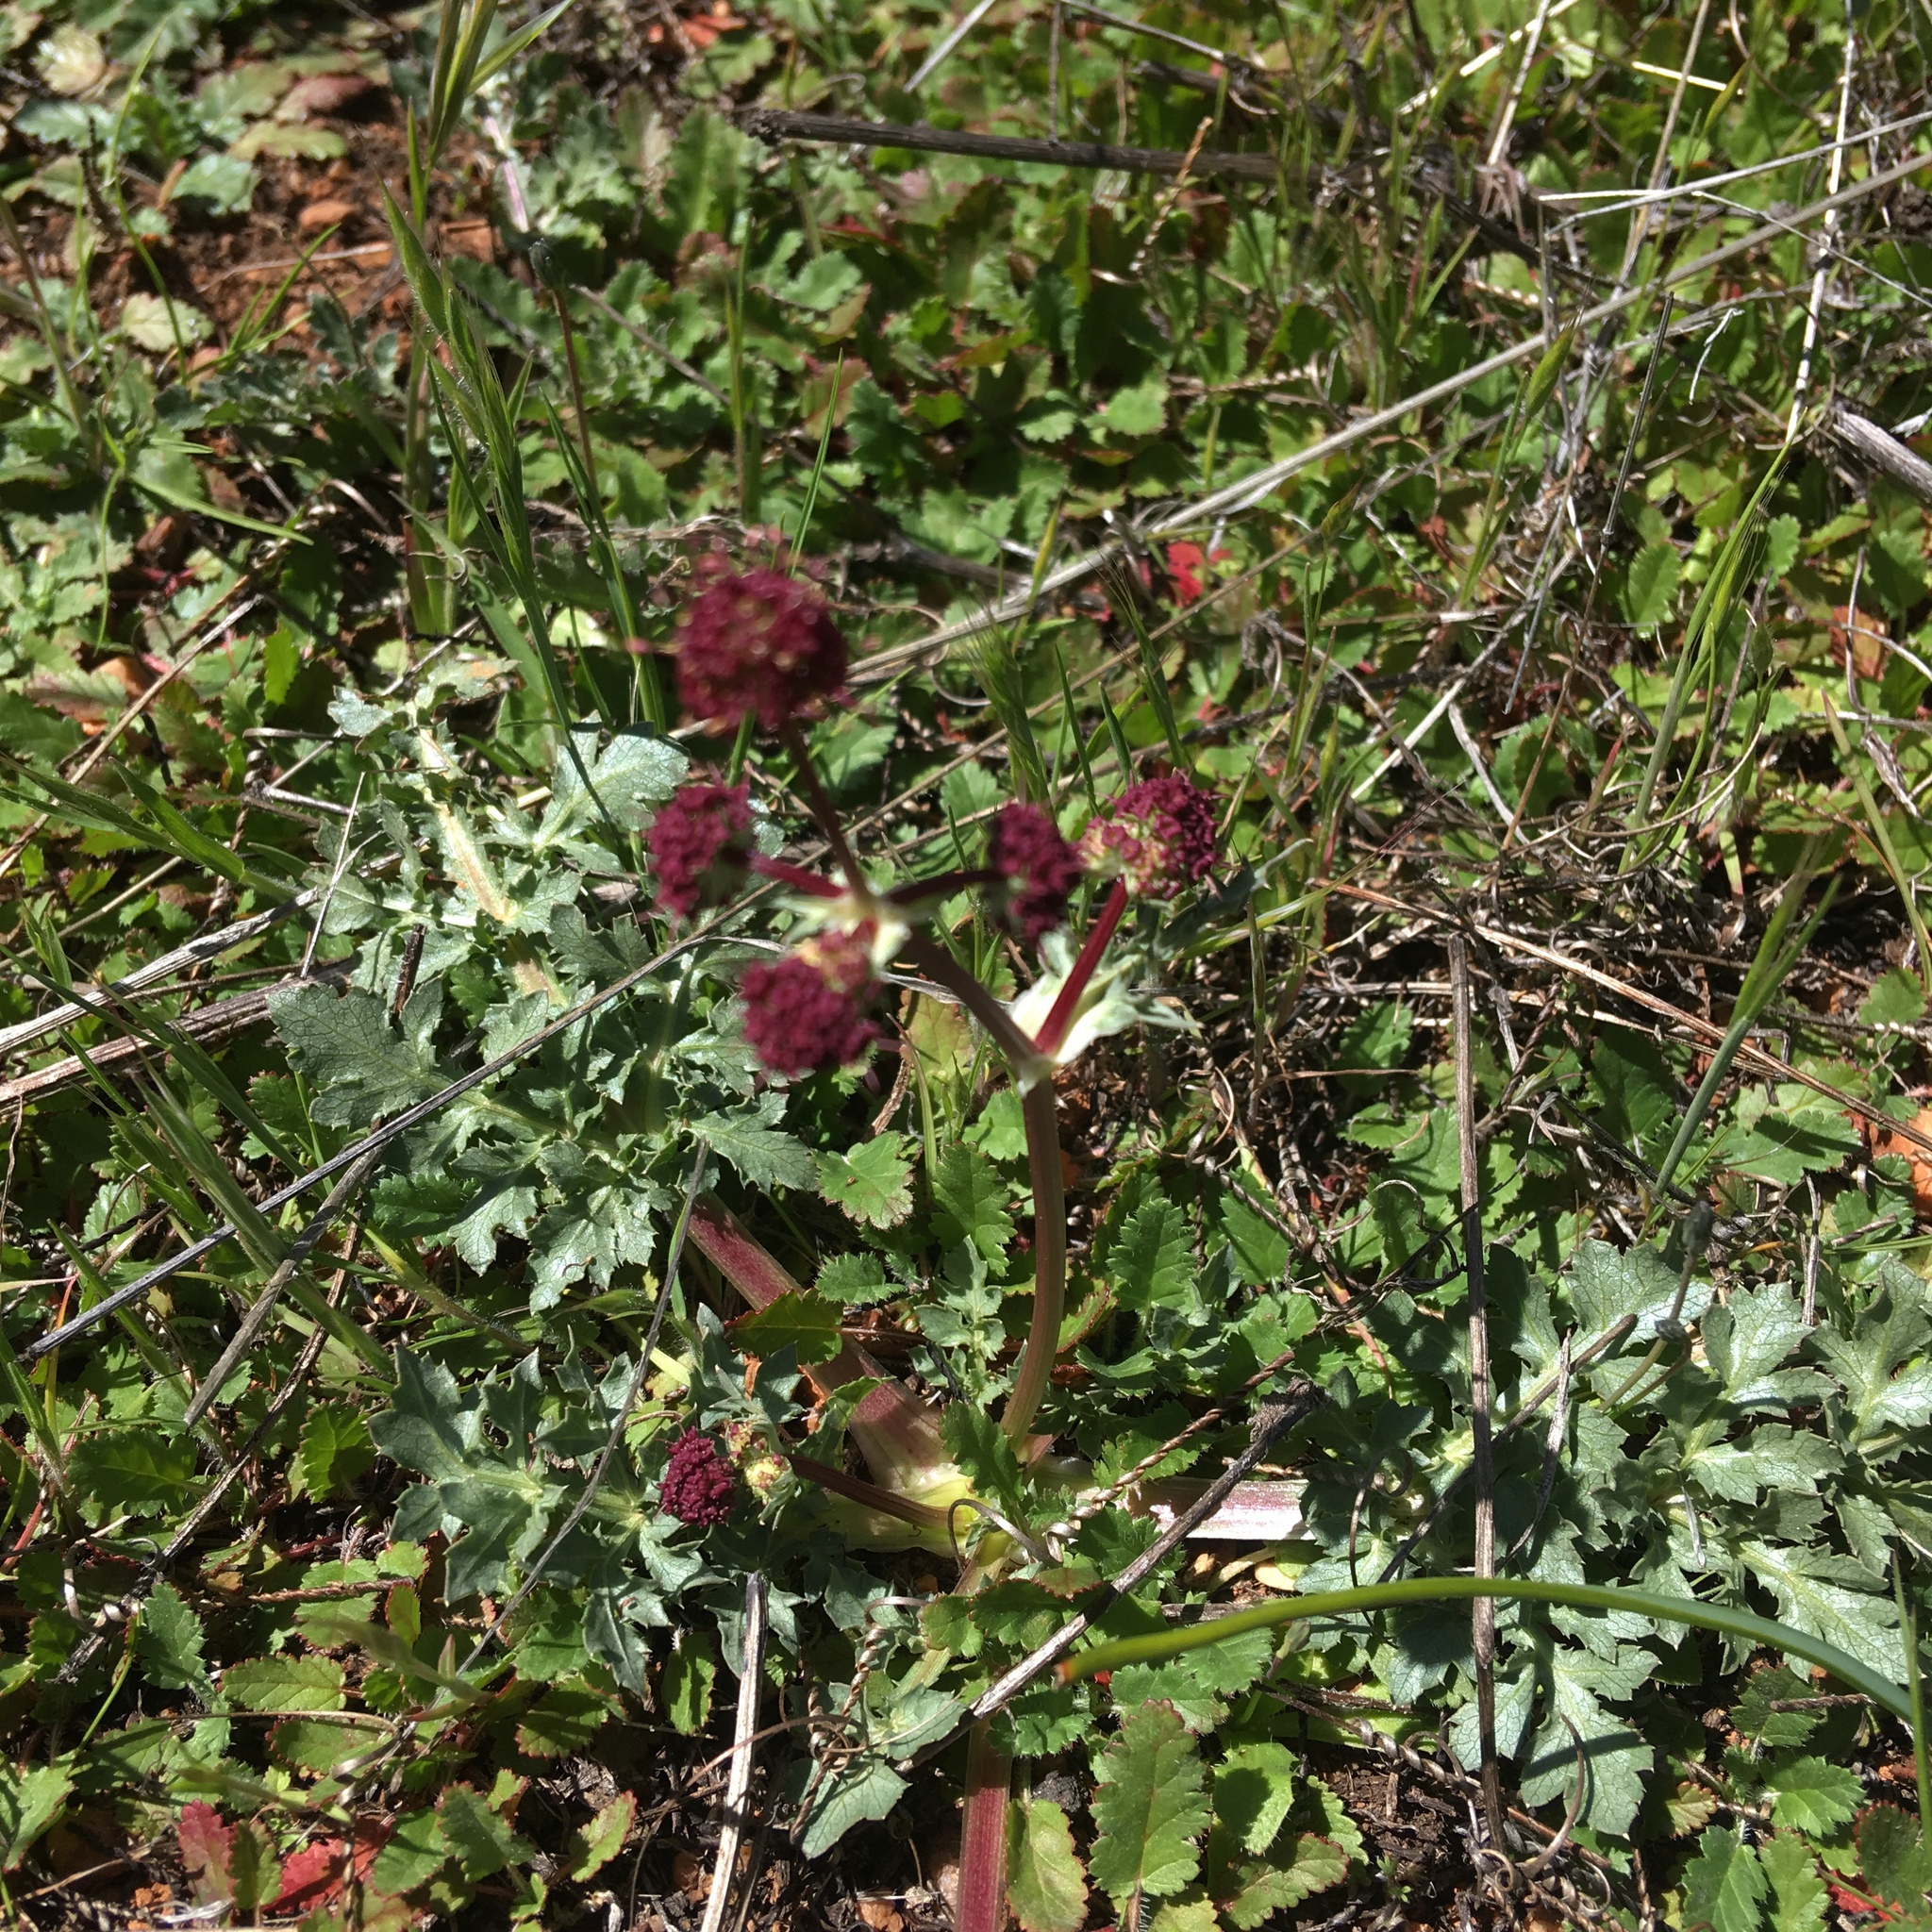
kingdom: Plantae
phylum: Tracheophyta
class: Magnoliopsida
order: Apiales
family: Apiaceae
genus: Sanicula
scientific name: Sanicula bipinnatifida
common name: Shoe-buttons
